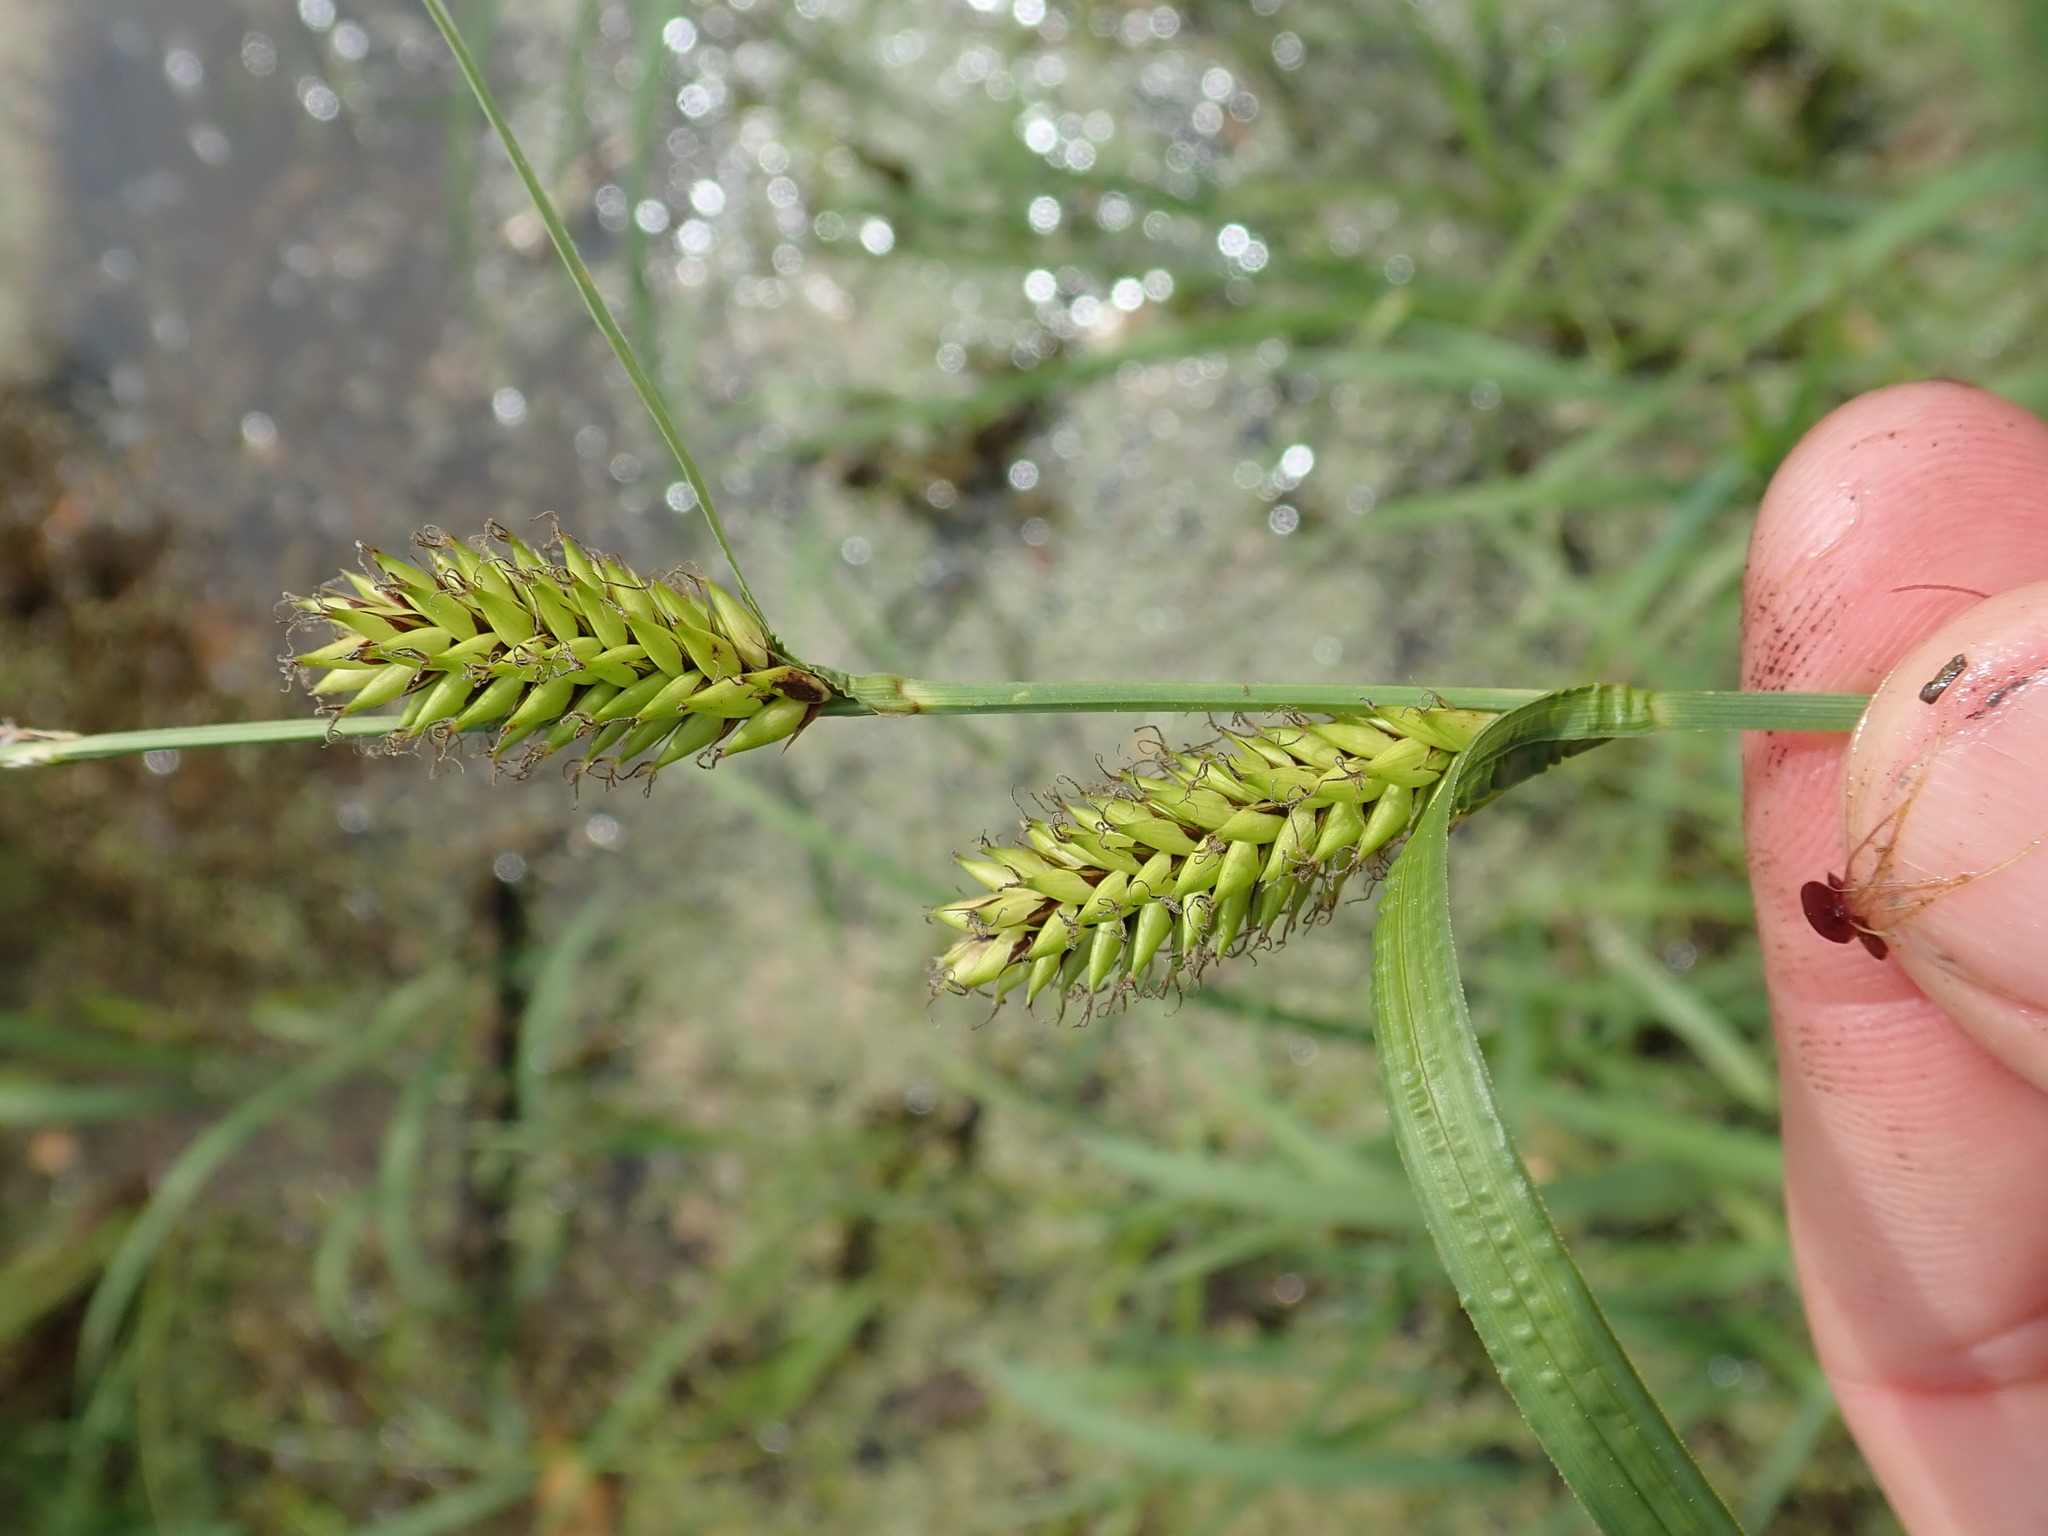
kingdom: Plantae
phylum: Tracheophyta
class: Liliopsida
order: Poales
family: Cyperaceae
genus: Carex
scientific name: Carex lacustris
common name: Common lake sedge
